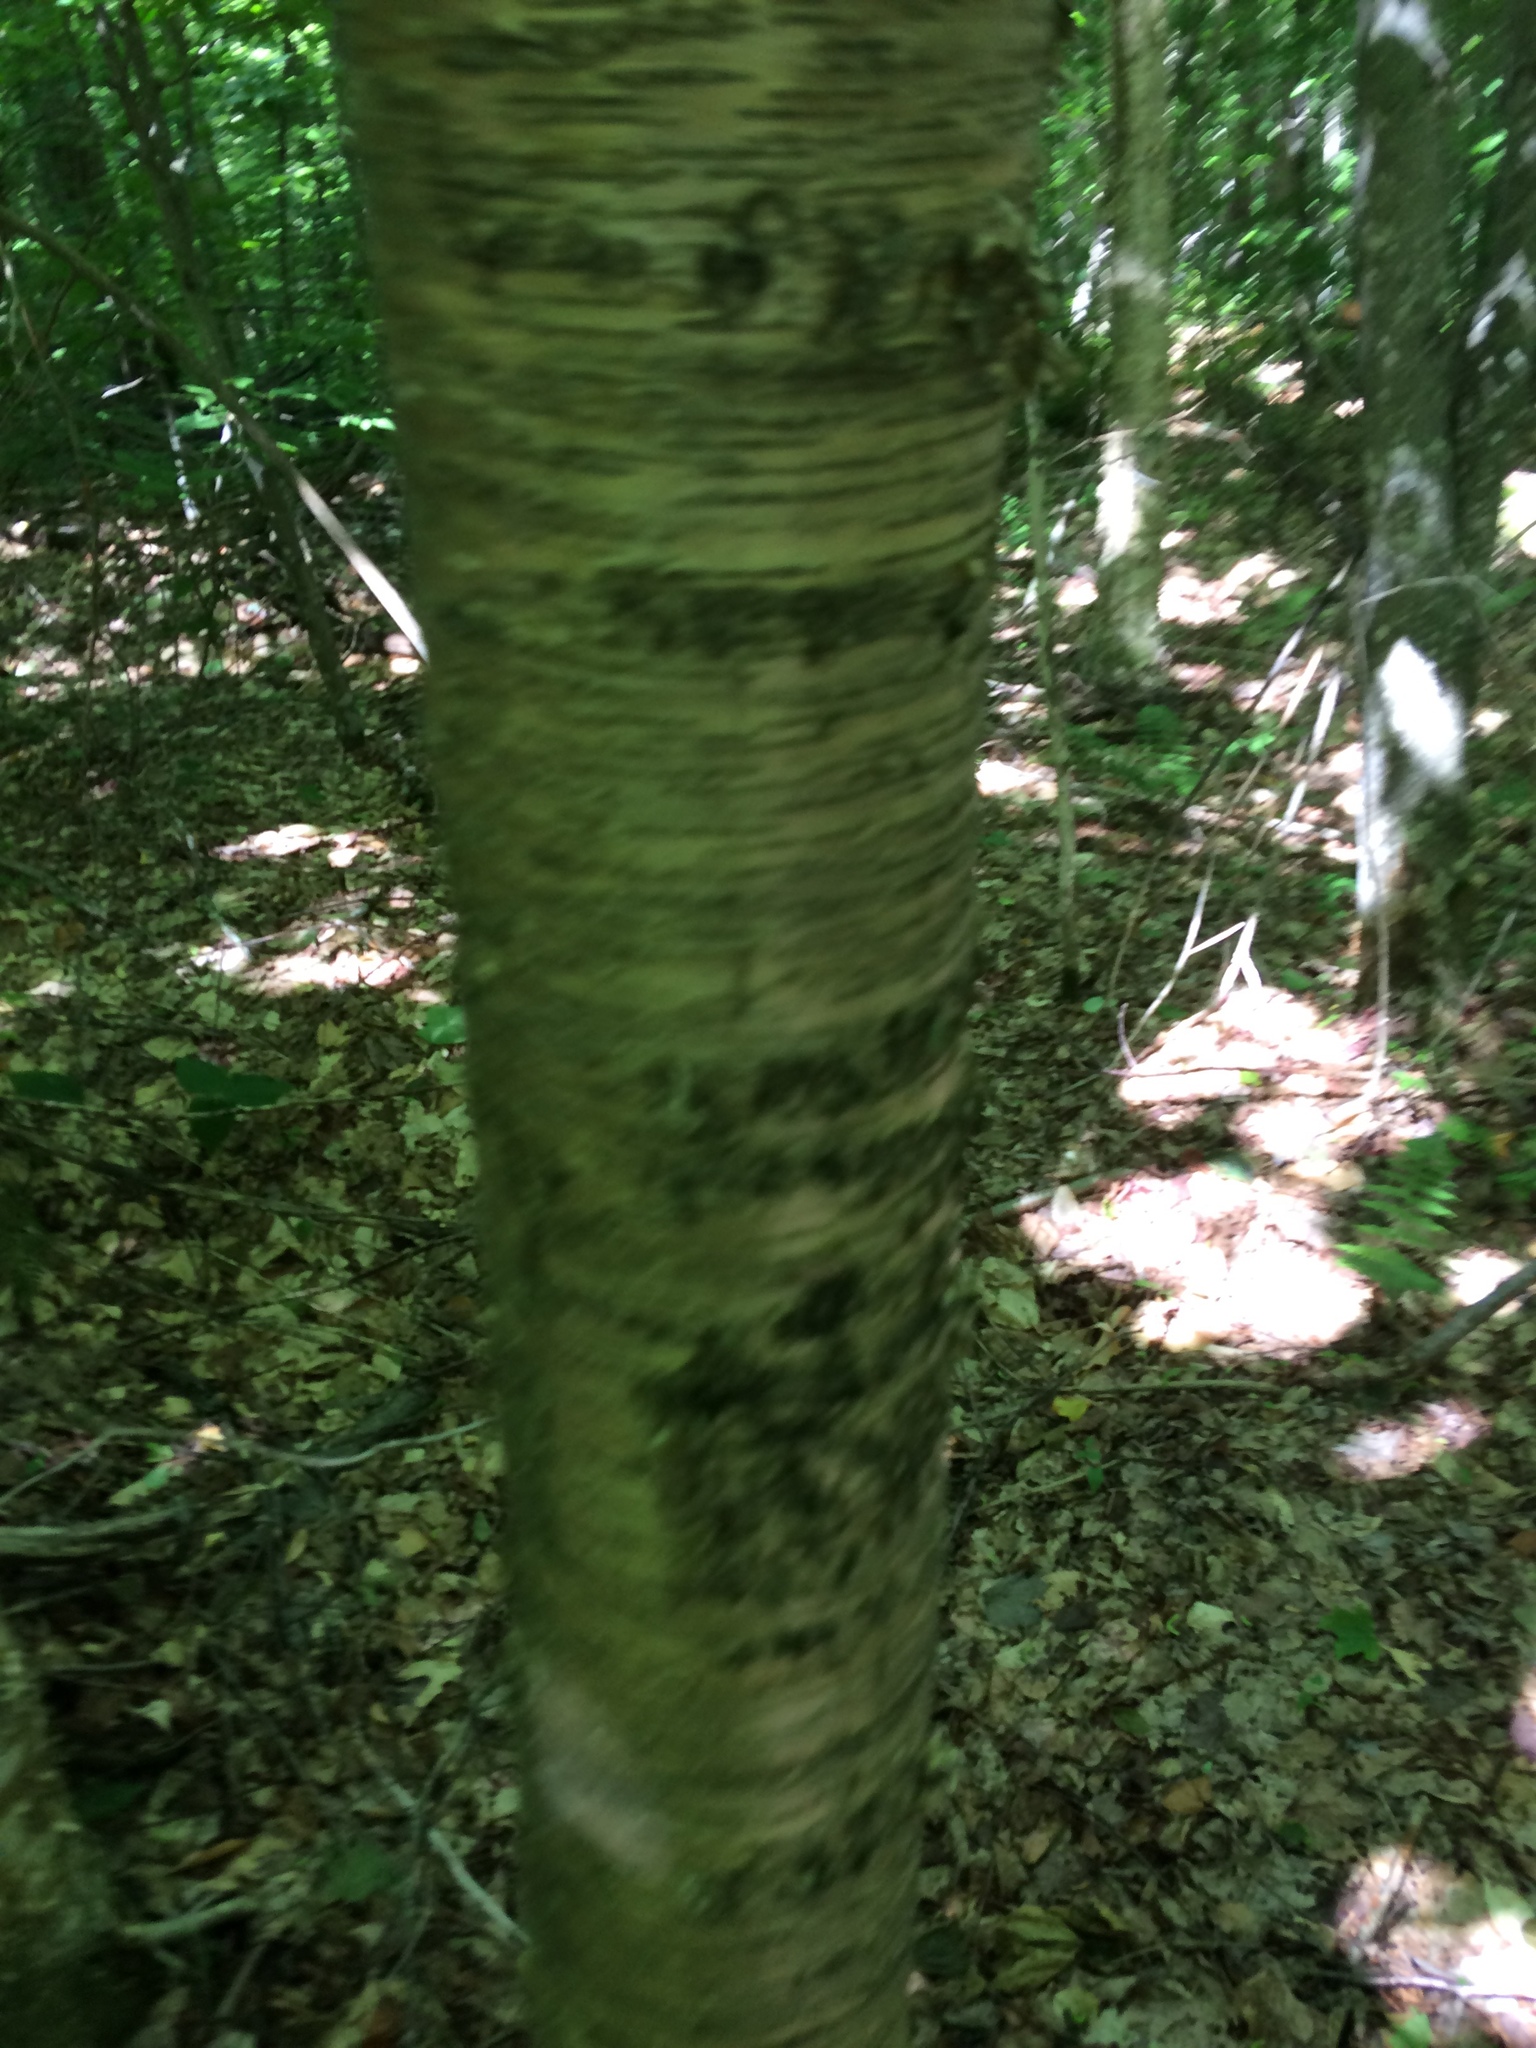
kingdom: Plantae
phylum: Tracheophyta
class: Magnoliopsida
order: Fagales
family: Betulaceae
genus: Betula
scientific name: Betula alleghaniensis
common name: Yellow birch
